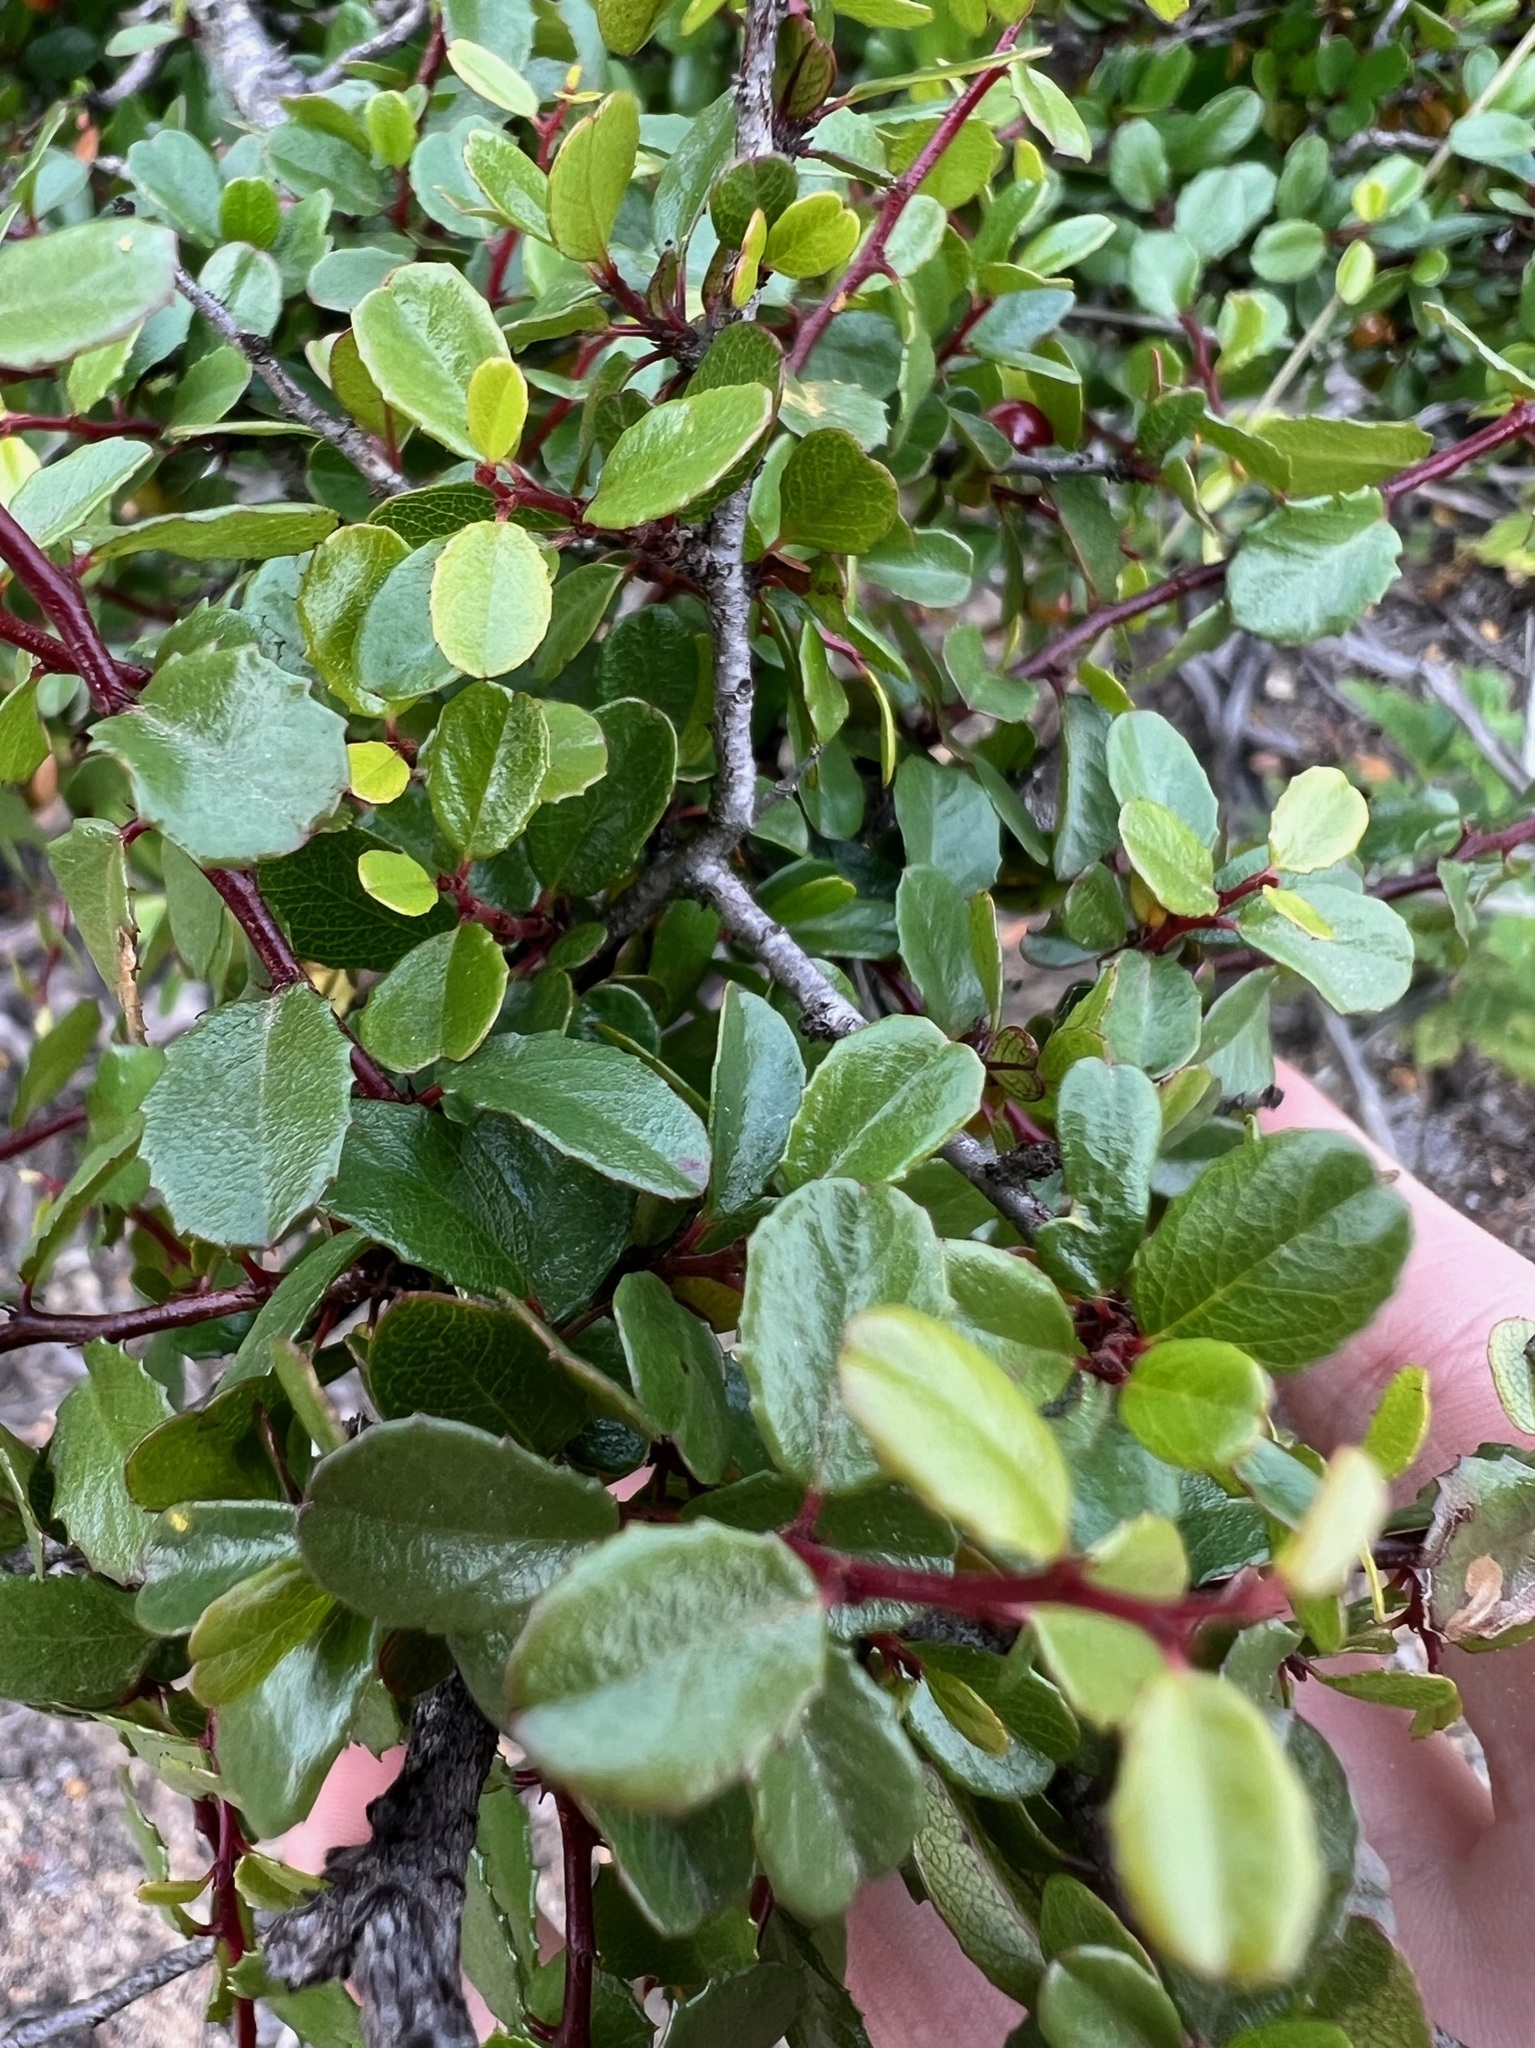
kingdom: Plantae
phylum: Tracheophyta
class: Magnoliopsida
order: Rosales
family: Rhamnaceae
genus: Endotropis
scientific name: Endotropis crocea
